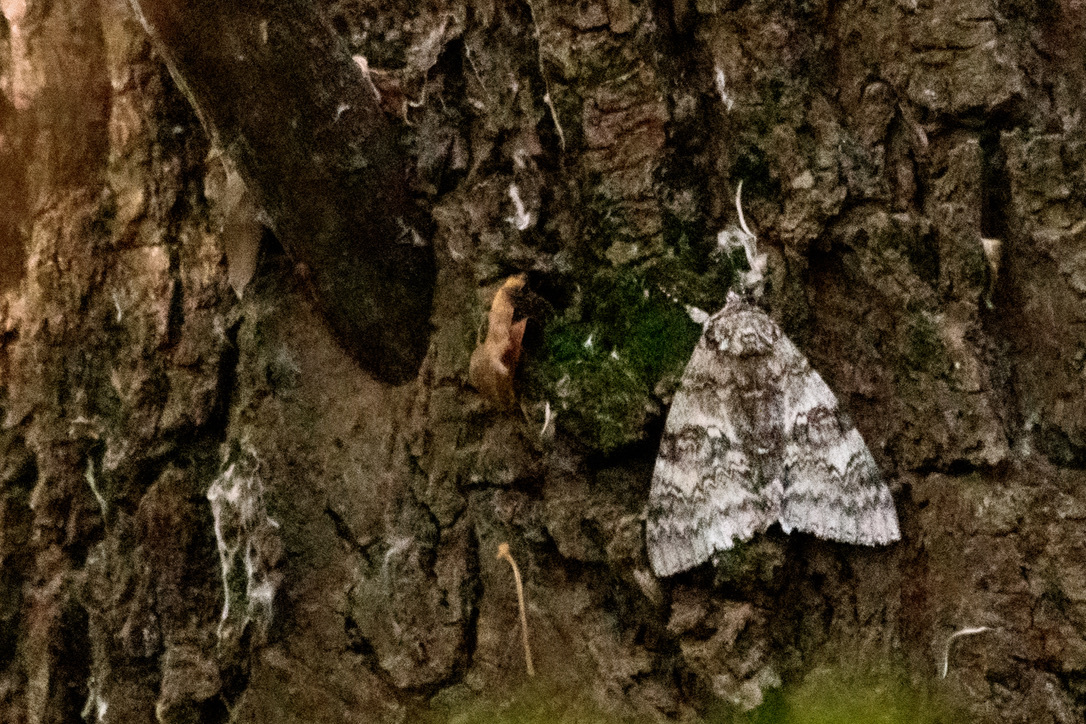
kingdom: Animalia
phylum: Arthropoda
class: Insecta
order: Lepidoptera
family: Erebidae
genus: Catocala
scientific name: Catocala fraxini
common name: Clifden nonpareil
